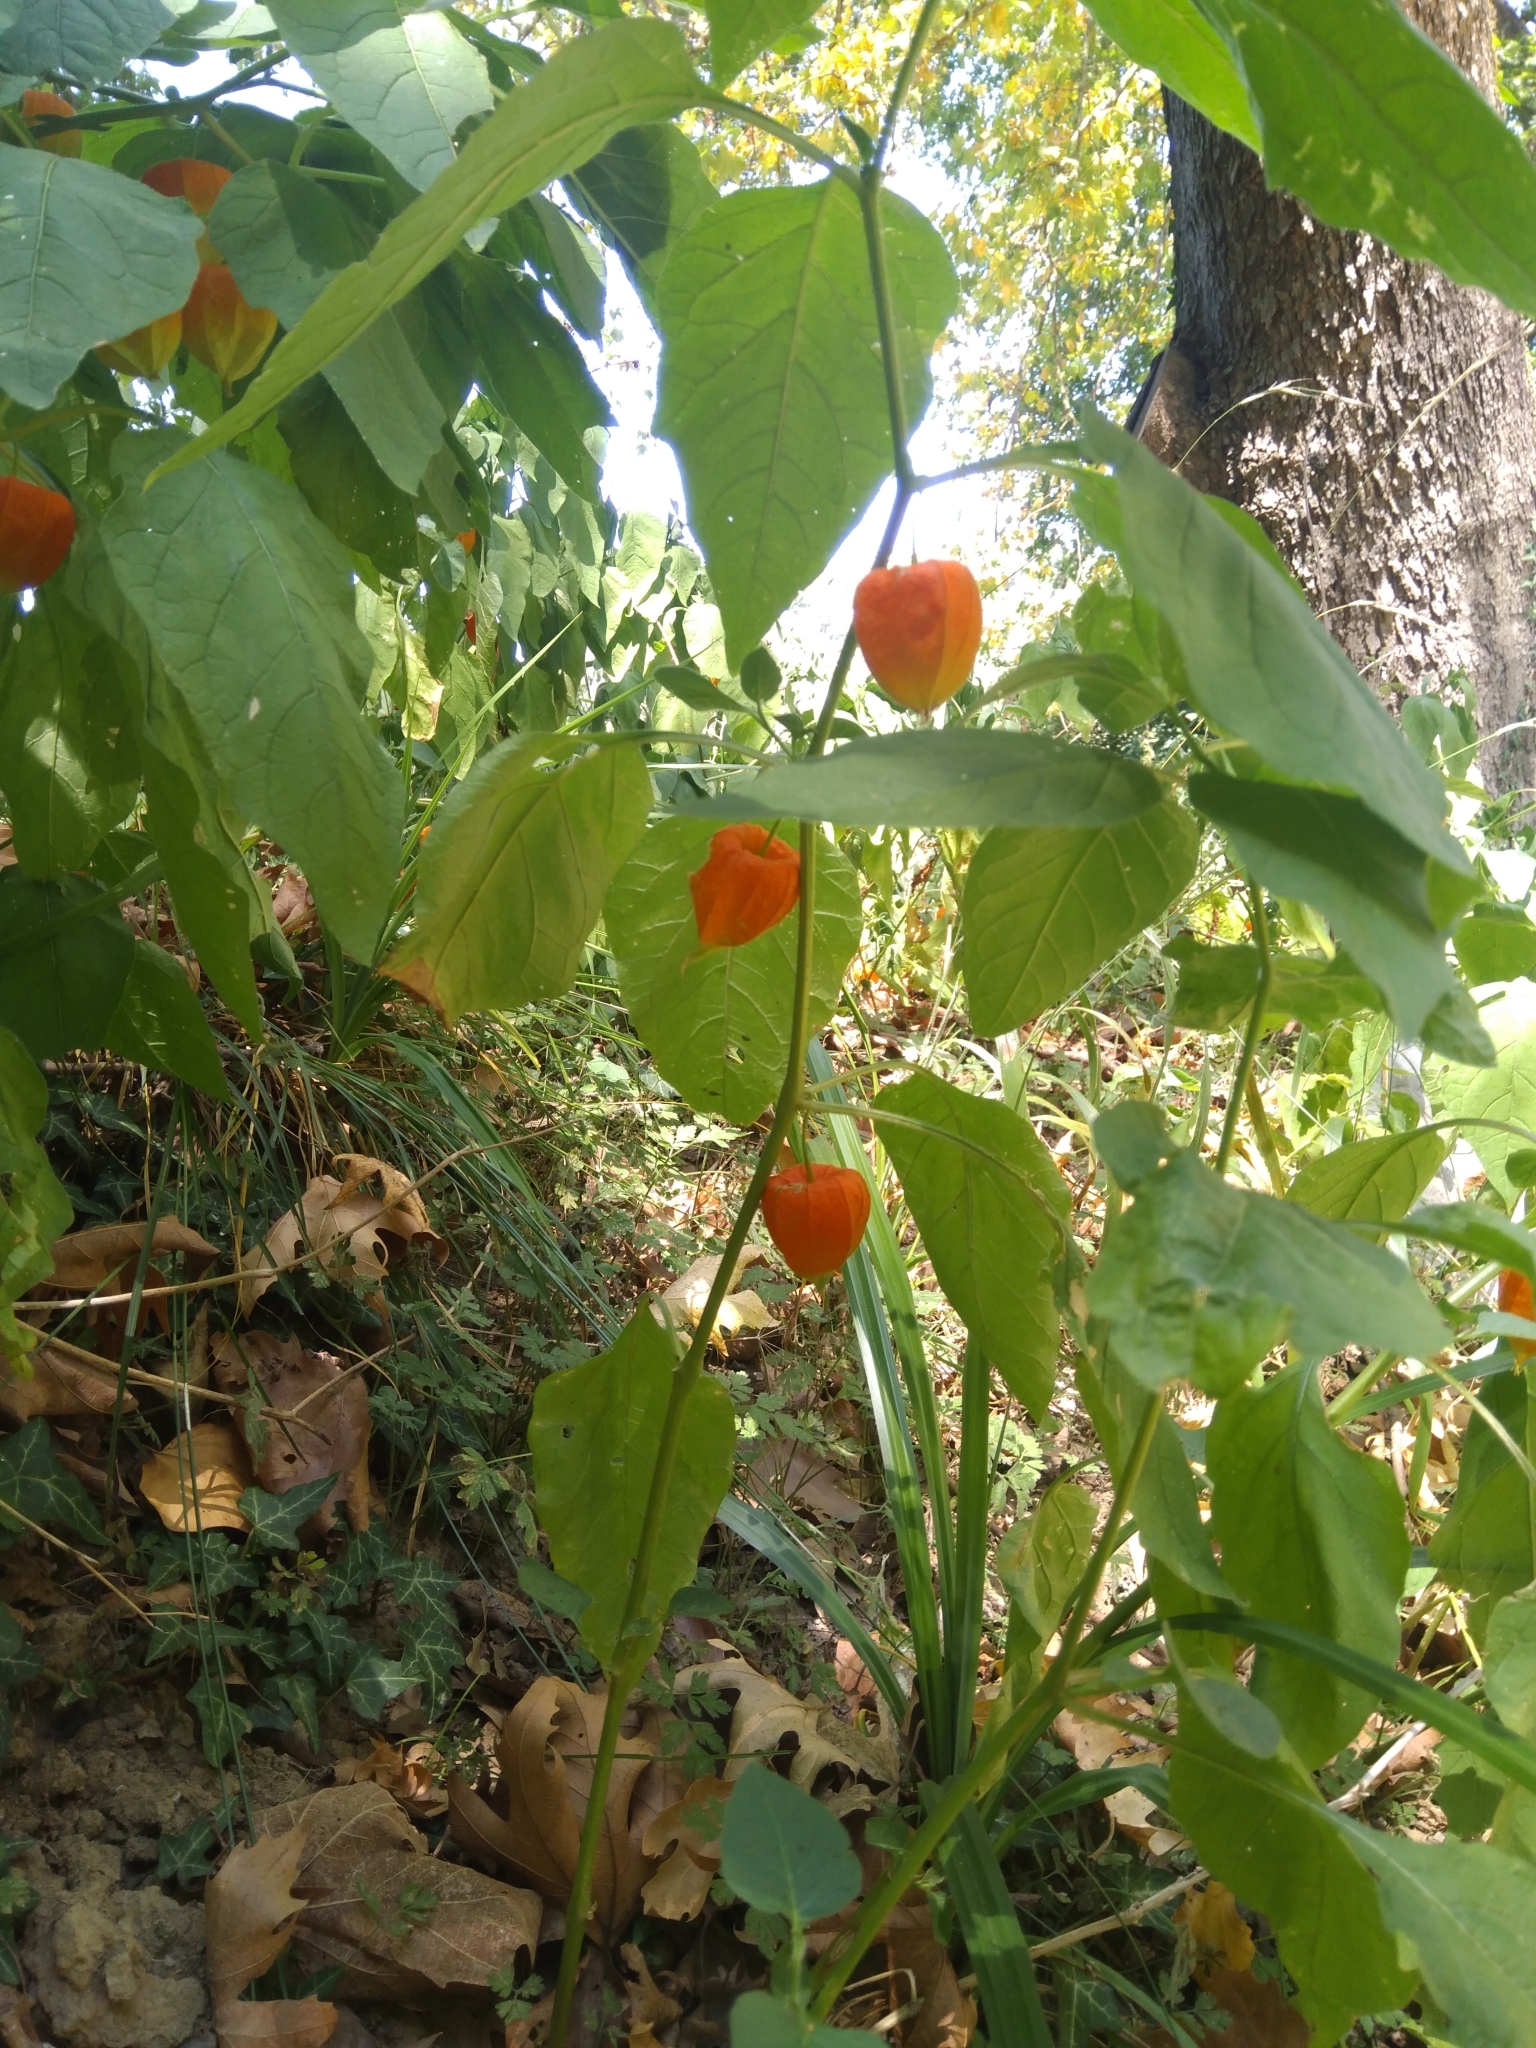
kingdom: Plantae
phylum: Tracheophyta
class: Magnoliopsida
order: Solanales
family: Solanaceae
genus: Alkekengi
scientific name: Alkekengi officinarum
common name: Japanese-lantern
